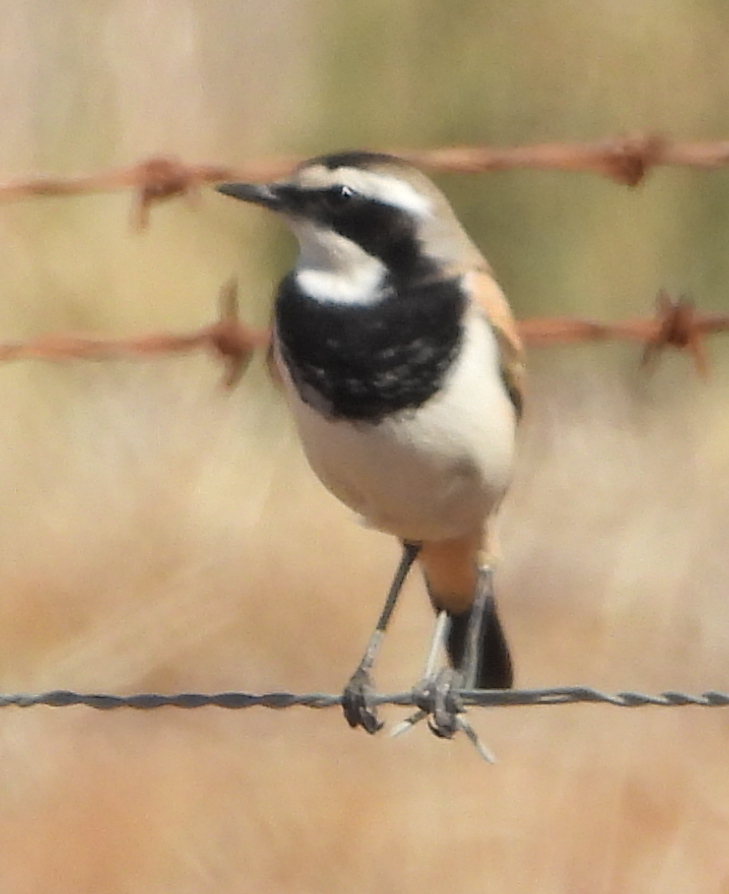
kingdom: Animalia
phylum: Chordata
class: Aves
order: Passeriformes
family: Muscicapidae
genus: Oenanthe
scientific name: Oenanthe pileata
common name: Capped wheatear
